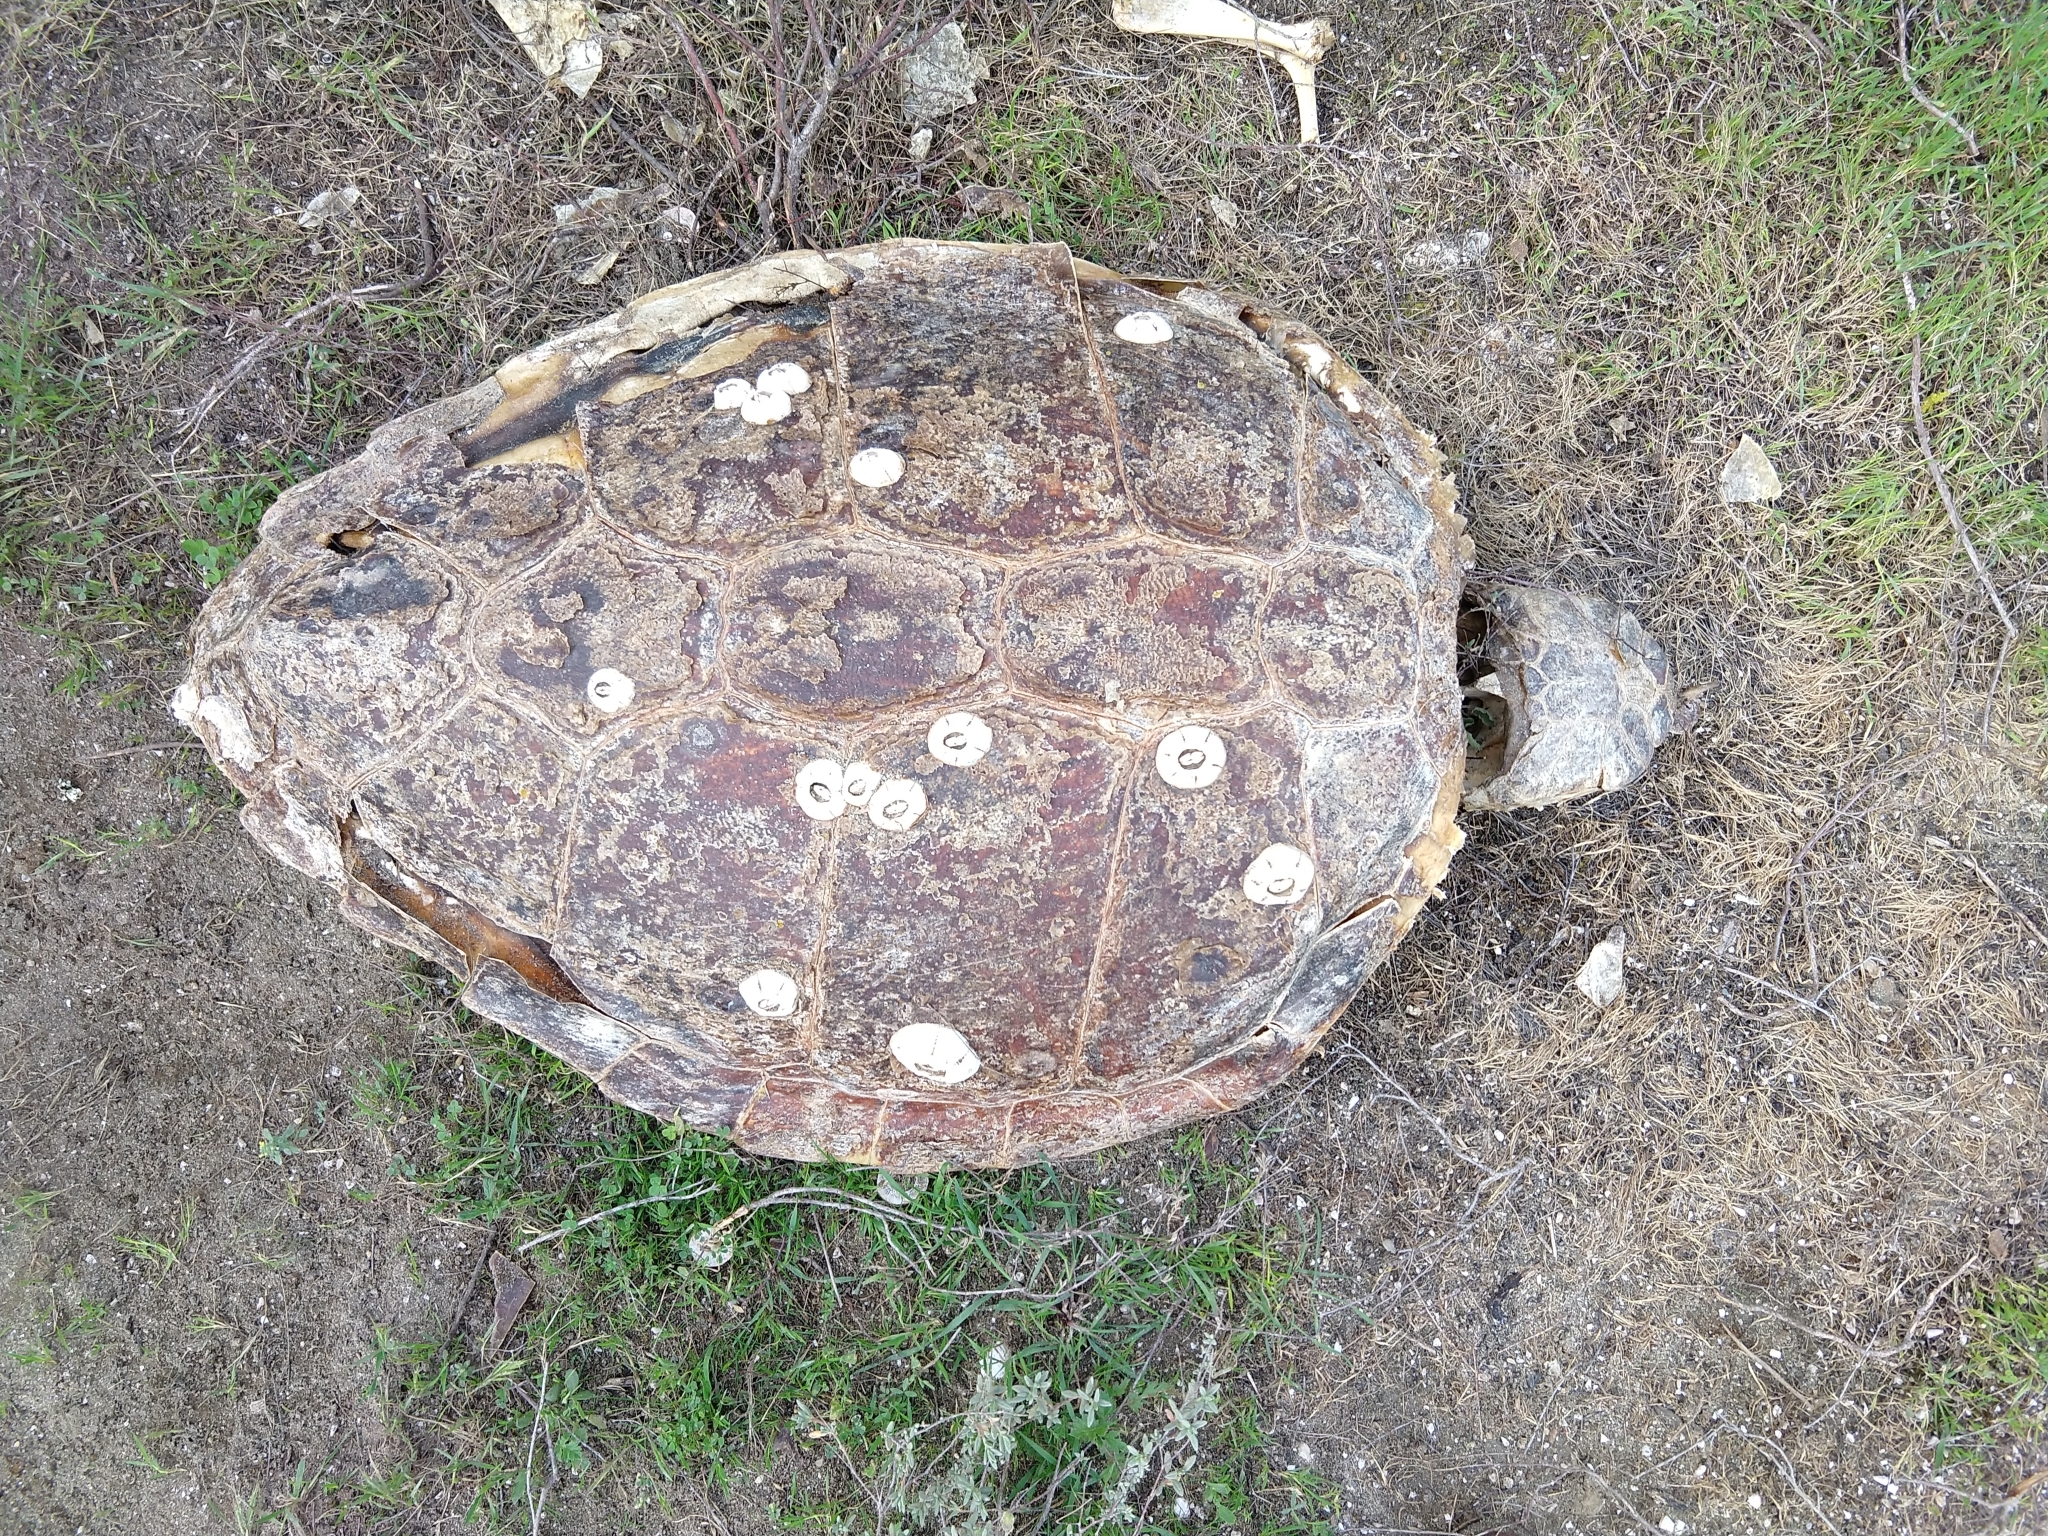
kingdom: Animalia
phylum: Chordata
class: Testudines
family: Cheloniidae
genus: Caretta
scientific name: Caretta caretta
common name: Loggerhead sea turtle
